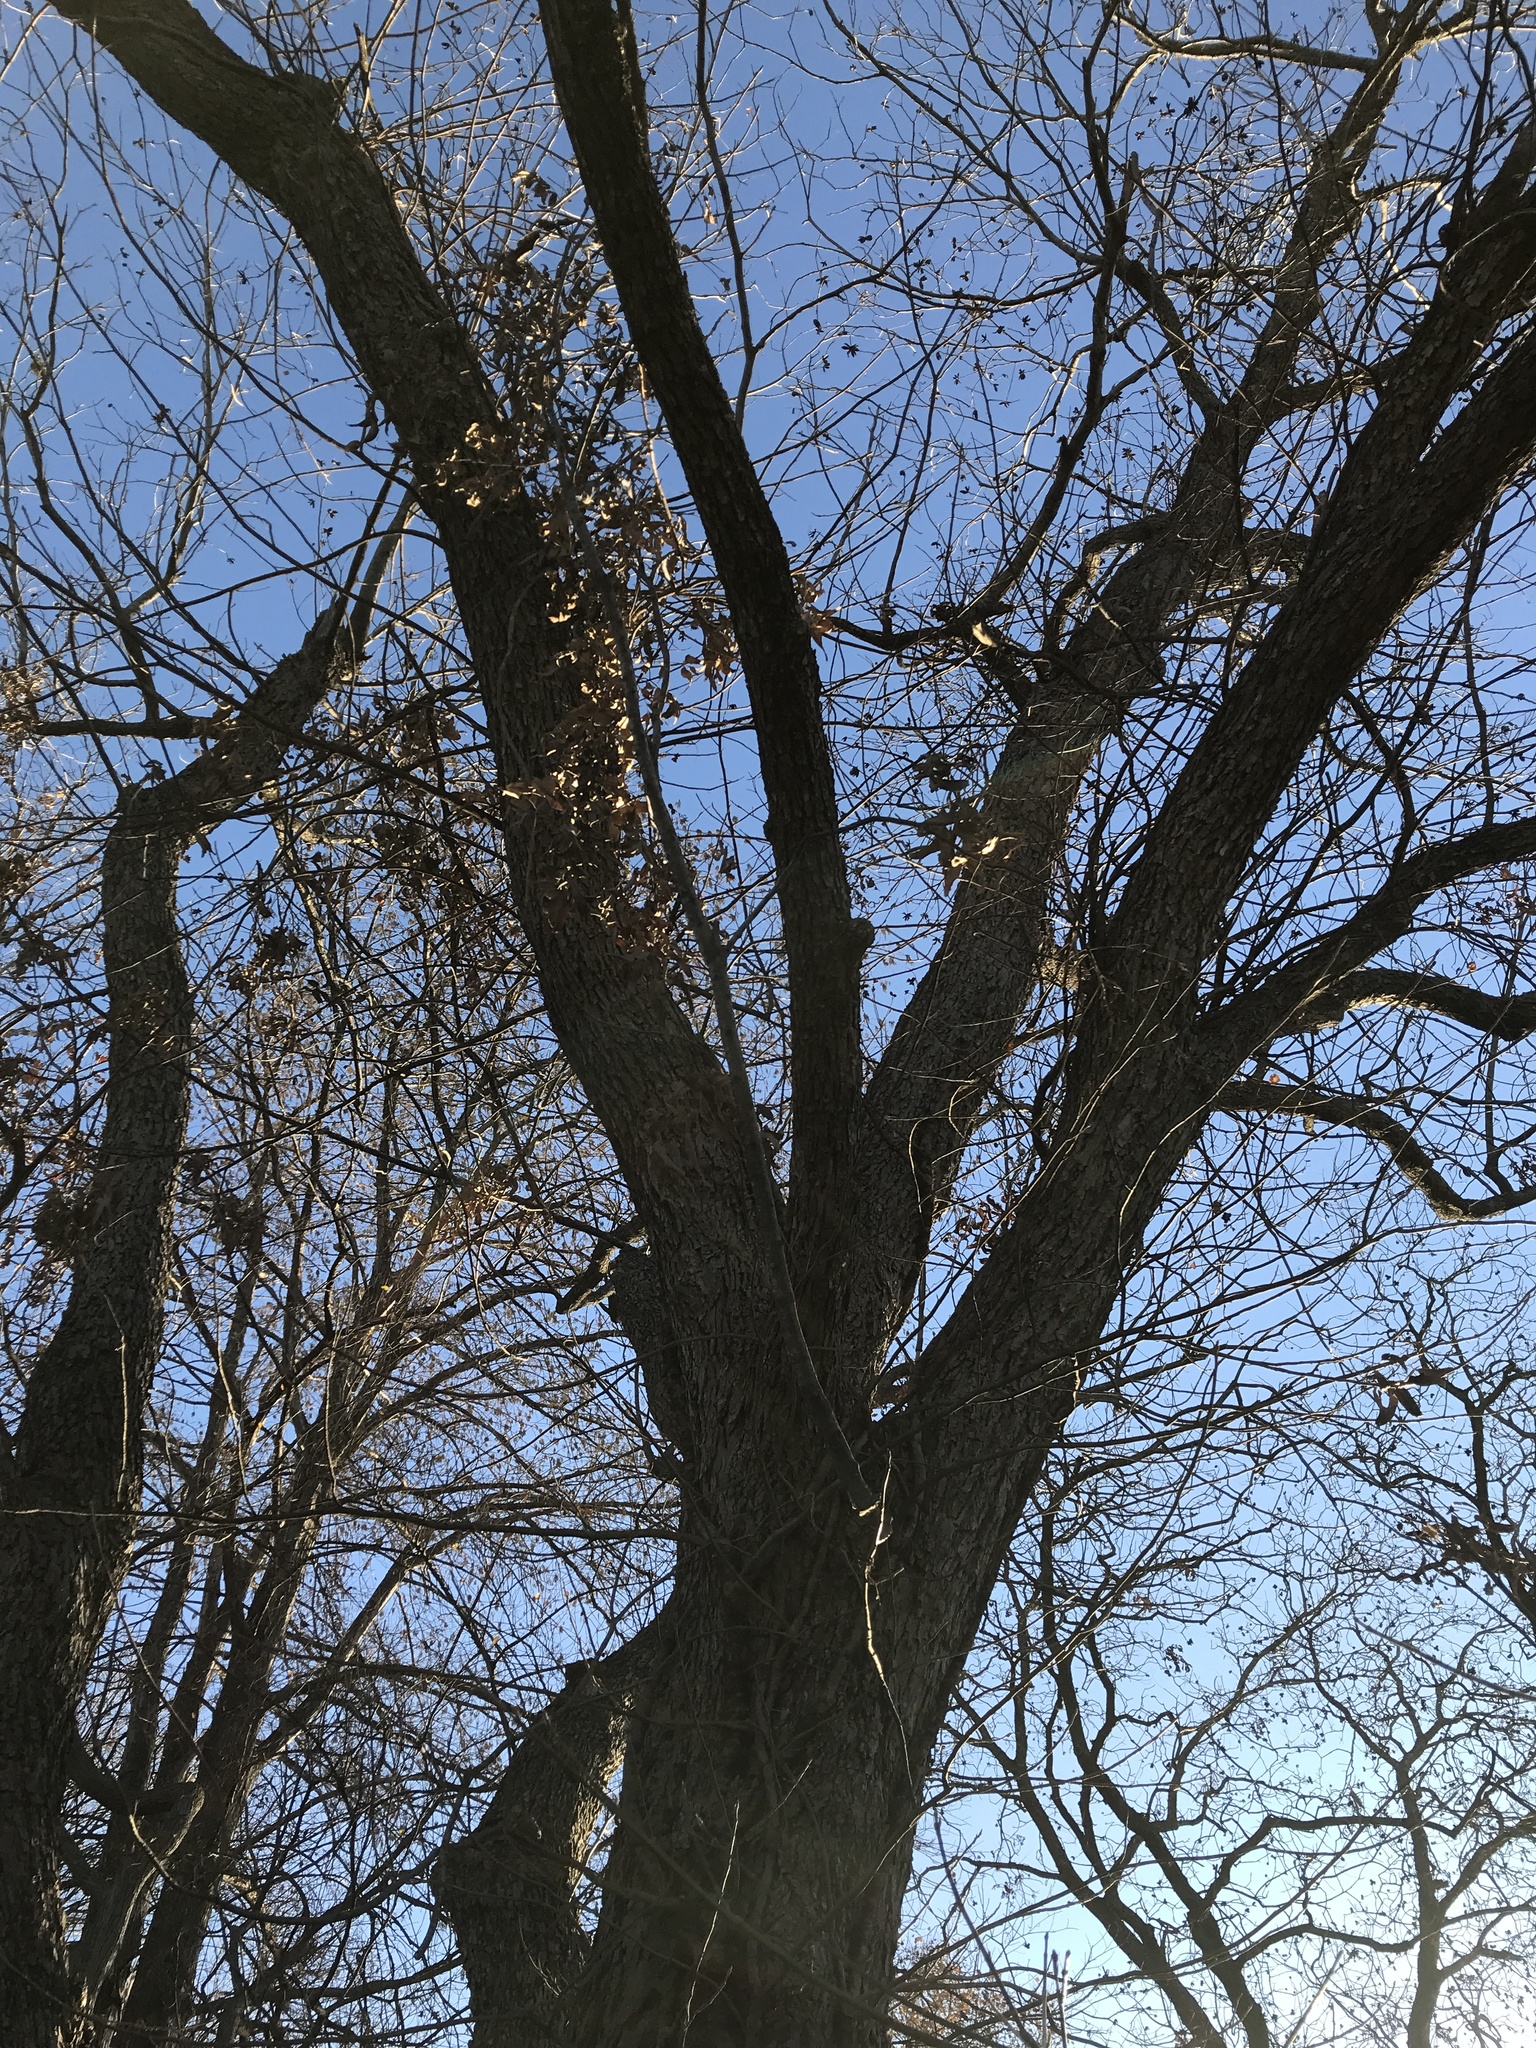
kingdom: Plantae
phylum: Tracheophyta
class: Magnoliopsida
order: Fagales
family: Juglandaceae
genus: Carya
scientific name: Carya illinoinensis
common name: Pecan
